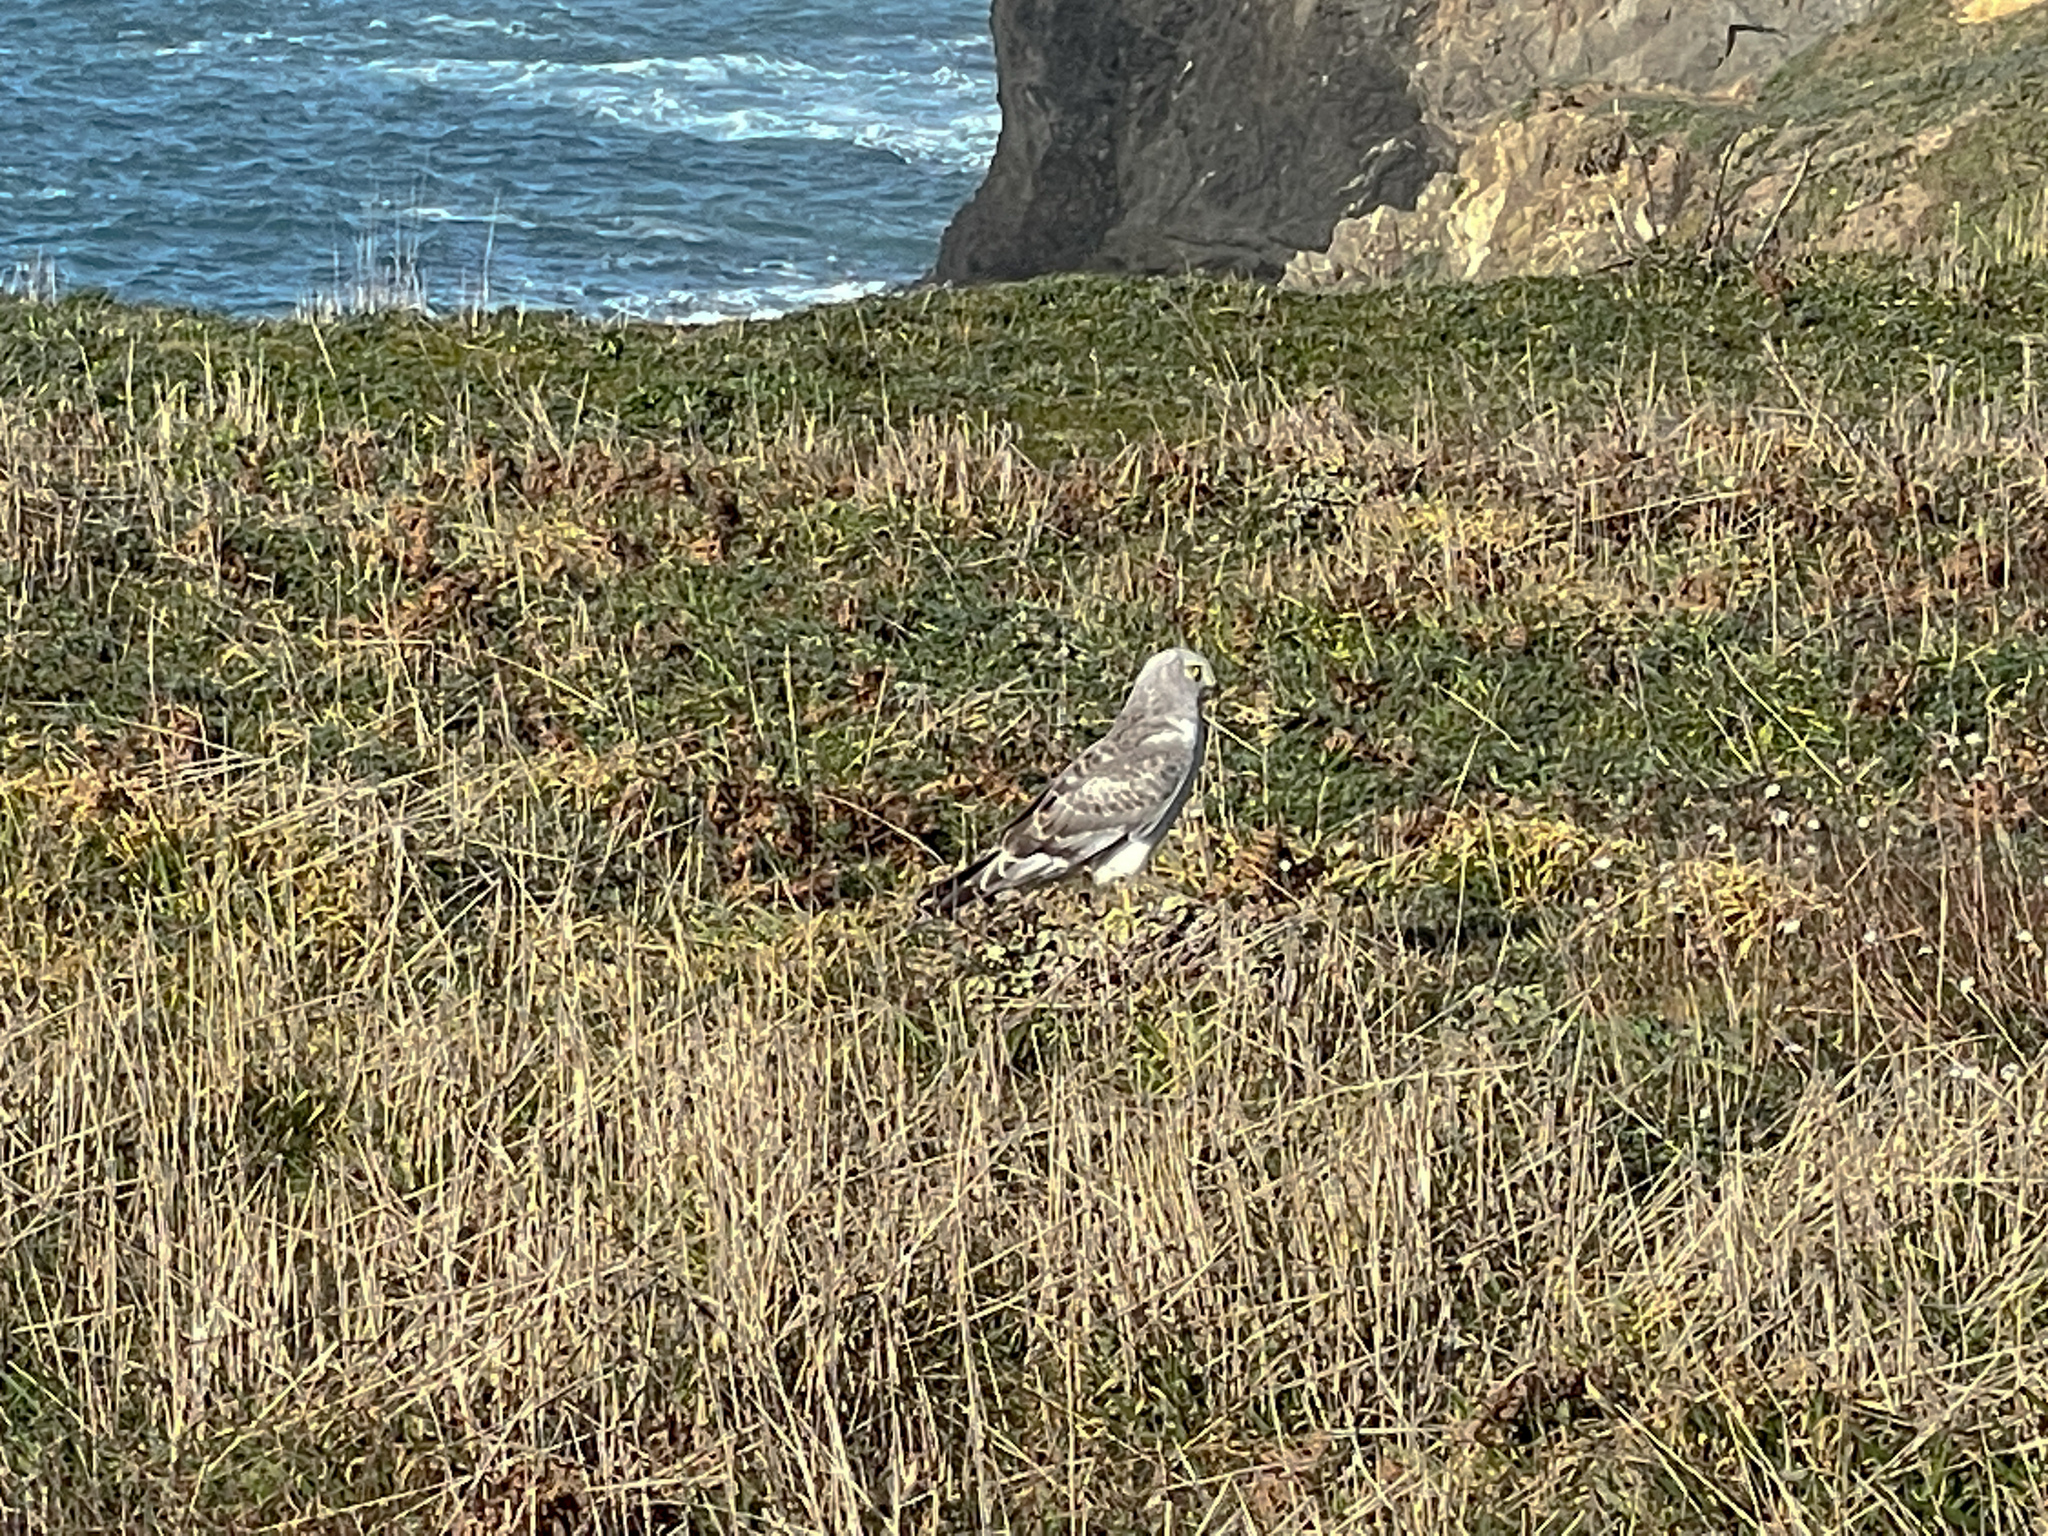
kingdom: Animalia
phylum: Chordata
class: Aves
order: Accipitriformes
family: Accipitridae
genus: Circus
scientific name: Circus cyaneus
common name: Hen harrier
